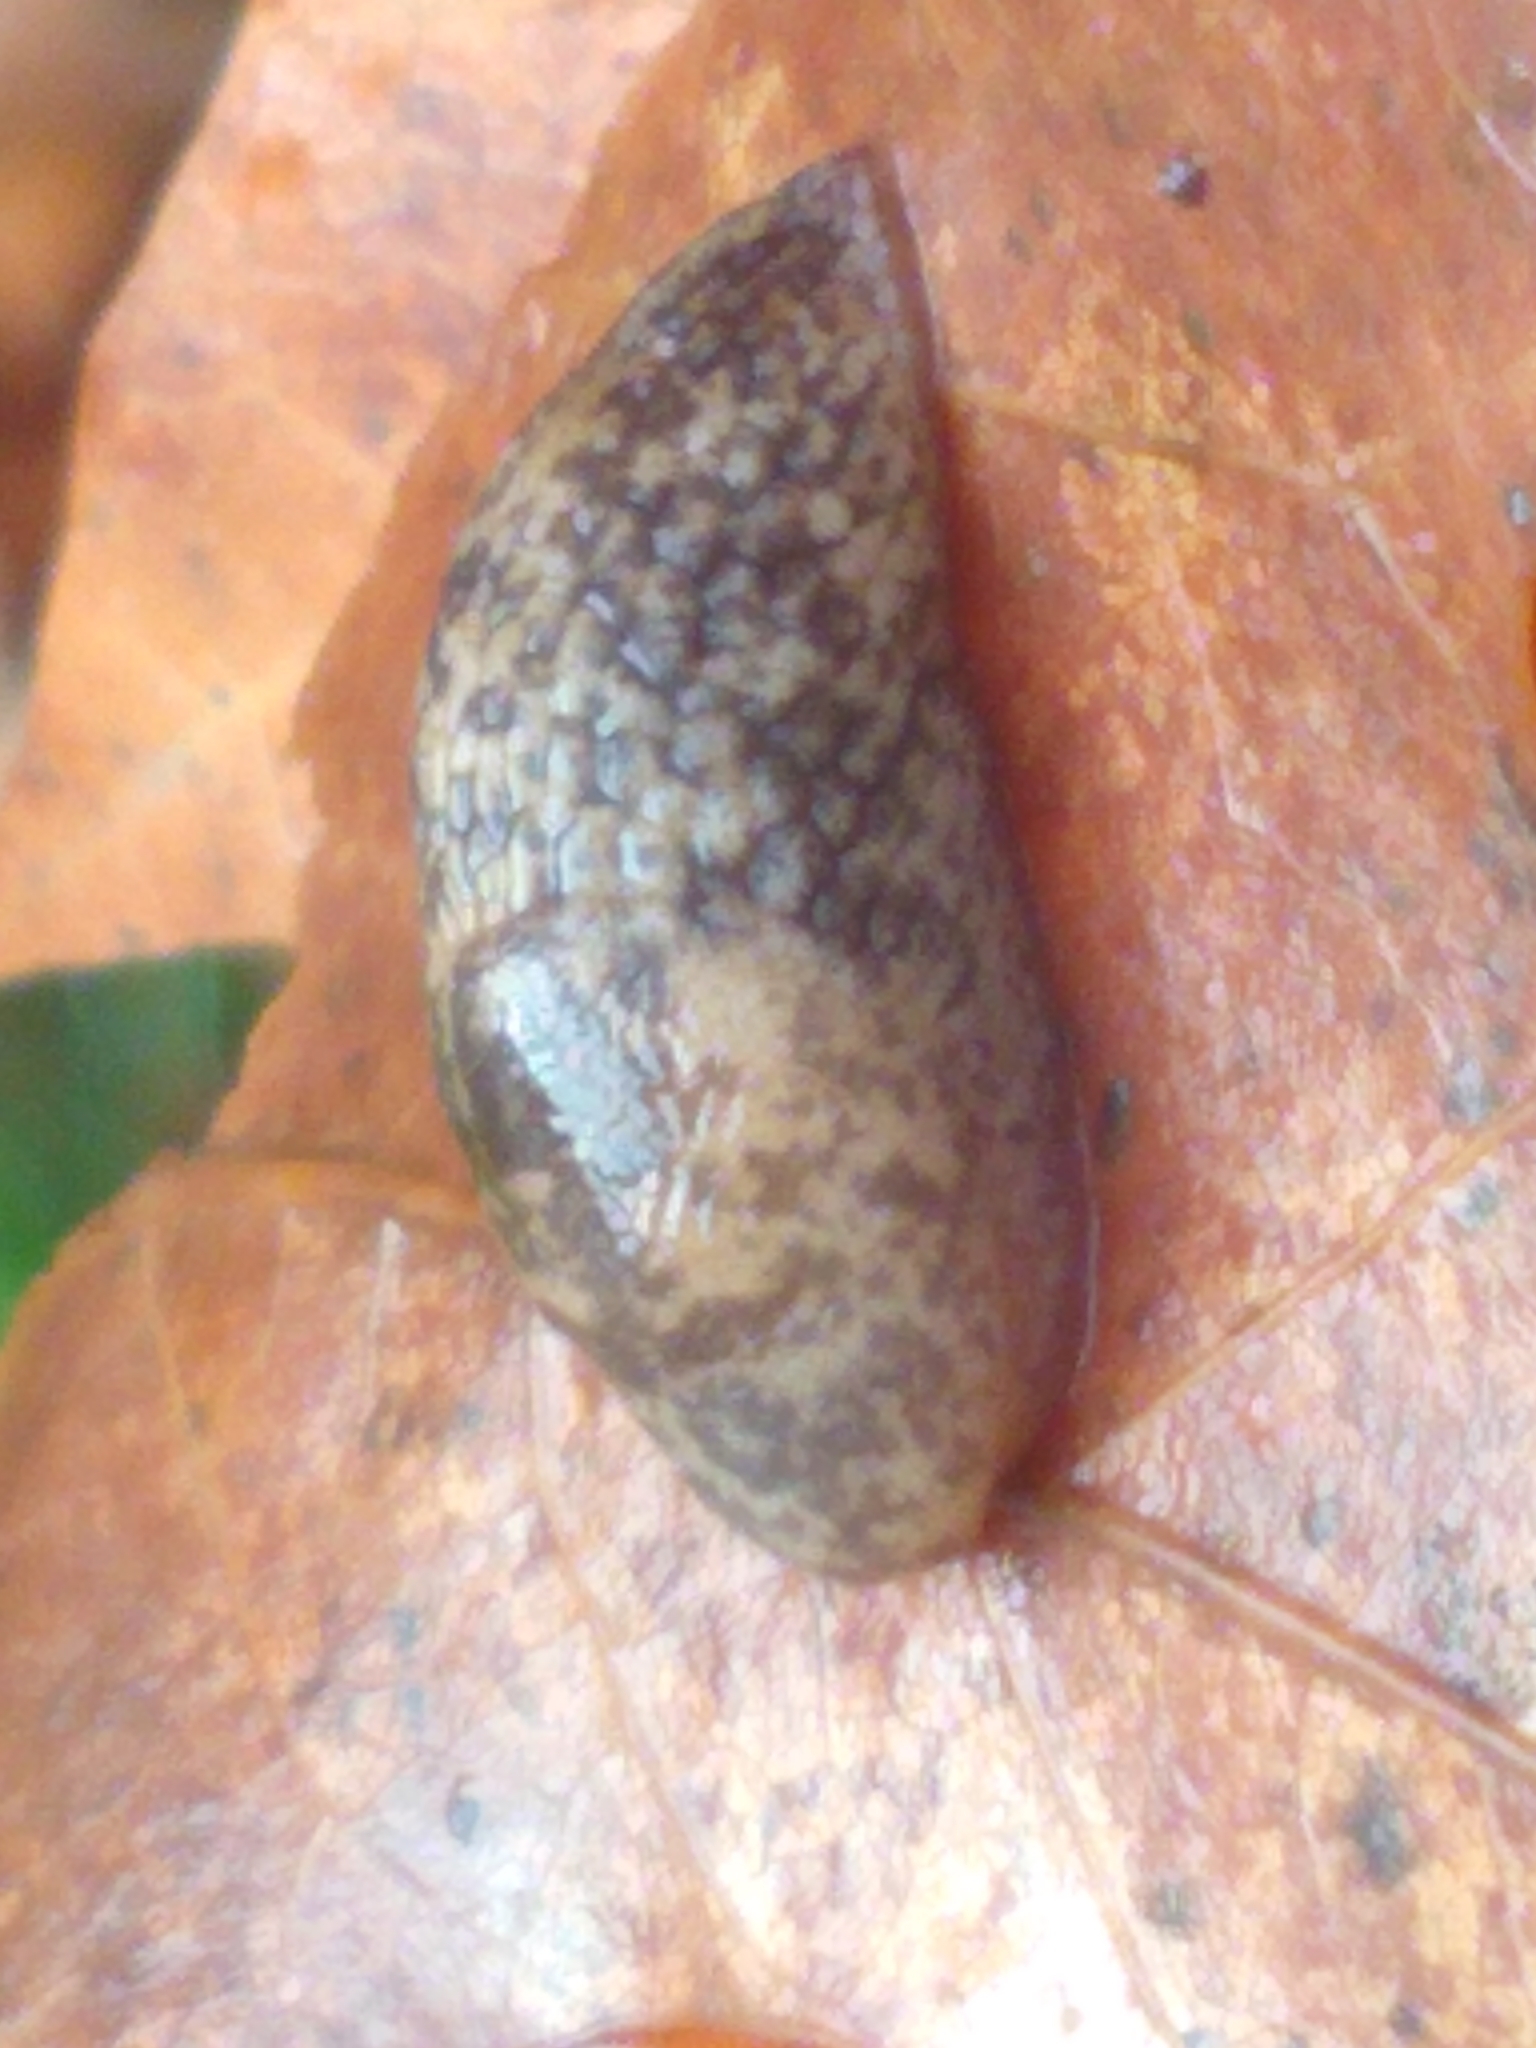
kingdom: Animalia
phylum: Mollusca
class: Gastropoda
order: Stylommatophora
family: Agriolimacidae
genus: Deroceras
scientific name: Deroceras reticulatum
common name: Gray field slug
